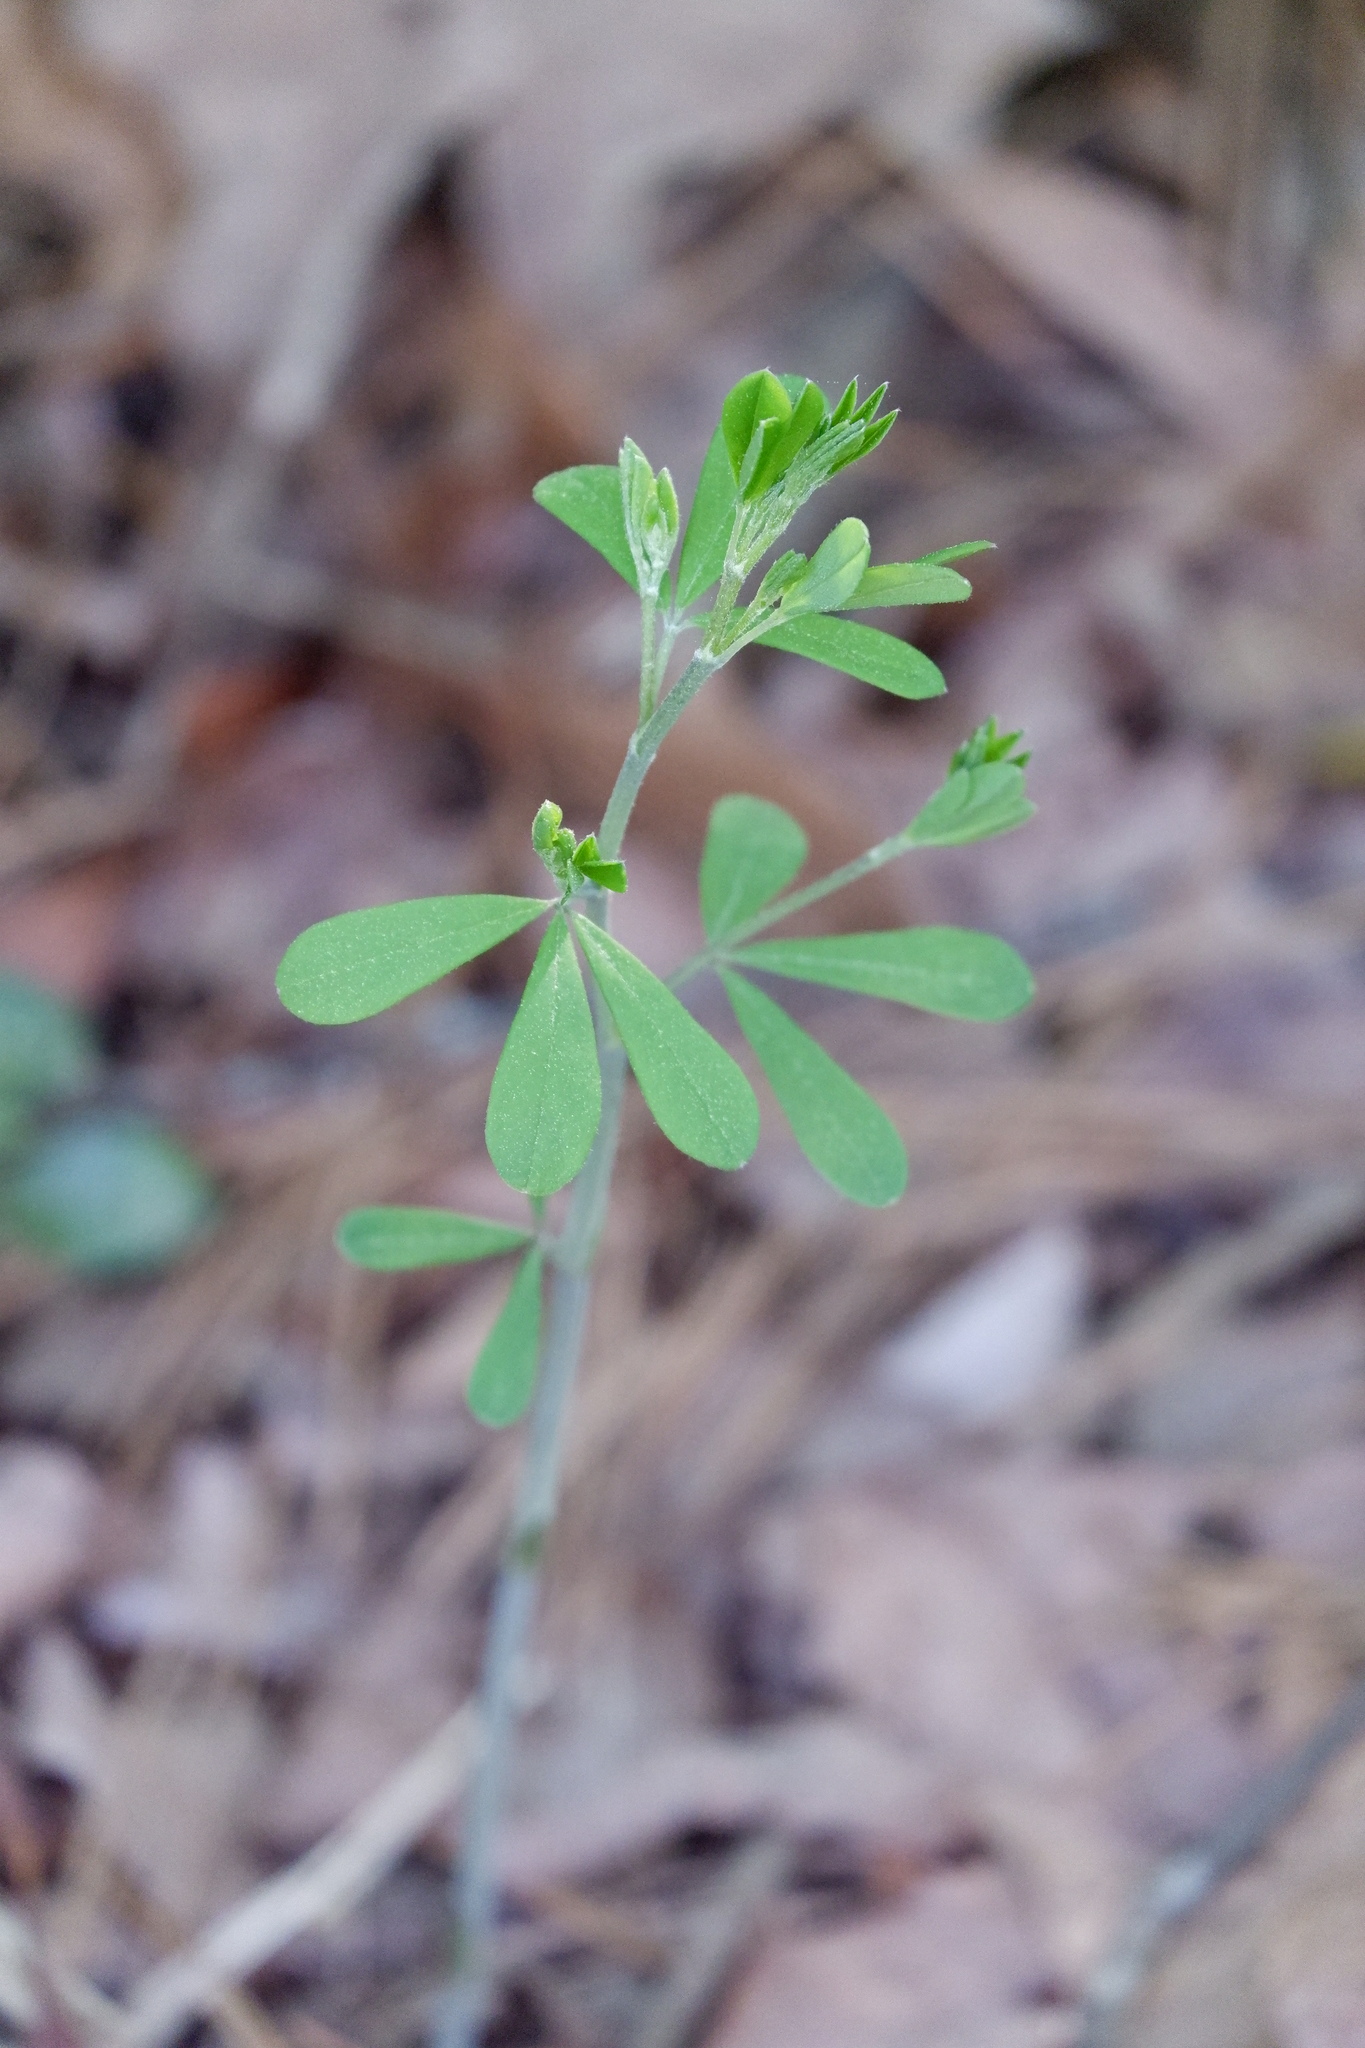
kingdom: Plantae
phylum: Tracheophyta
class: Magnoliopsida
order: Fabales
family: Fabaceae
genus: Baptisia
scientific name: Baptisia tinctoria
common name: Wild indigo
